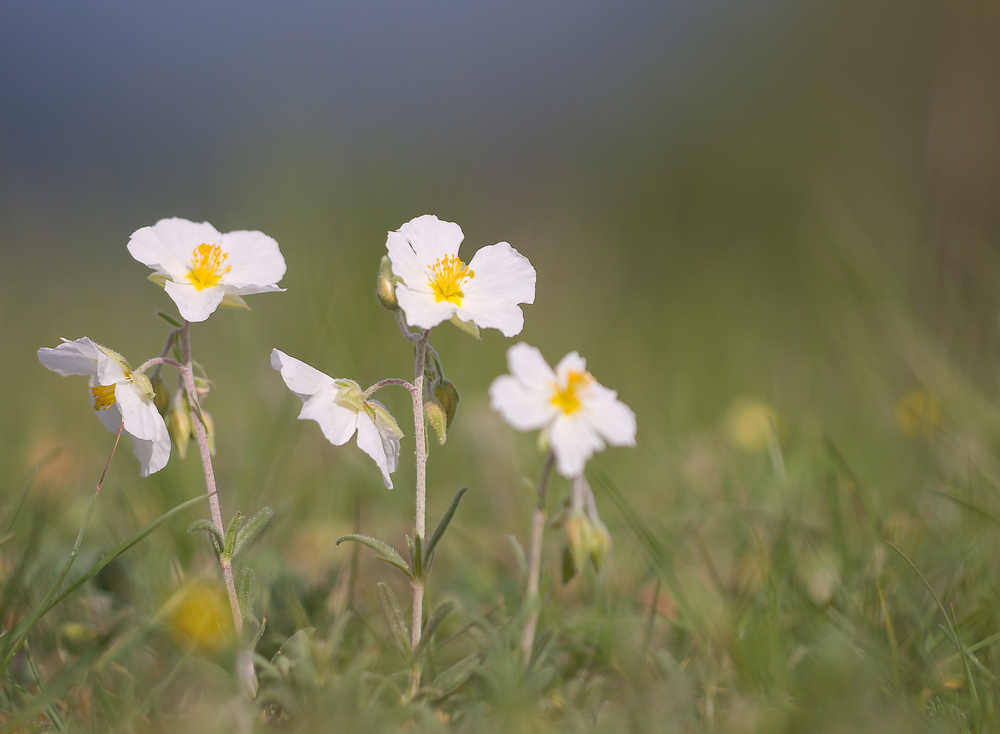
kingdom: Plantae
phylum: Tracheophyta
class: Magnoliopsida
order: Malvales
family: Cistaceae
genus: Helianthemum
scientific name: Helianthemum apenninum
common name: White rock-rose
